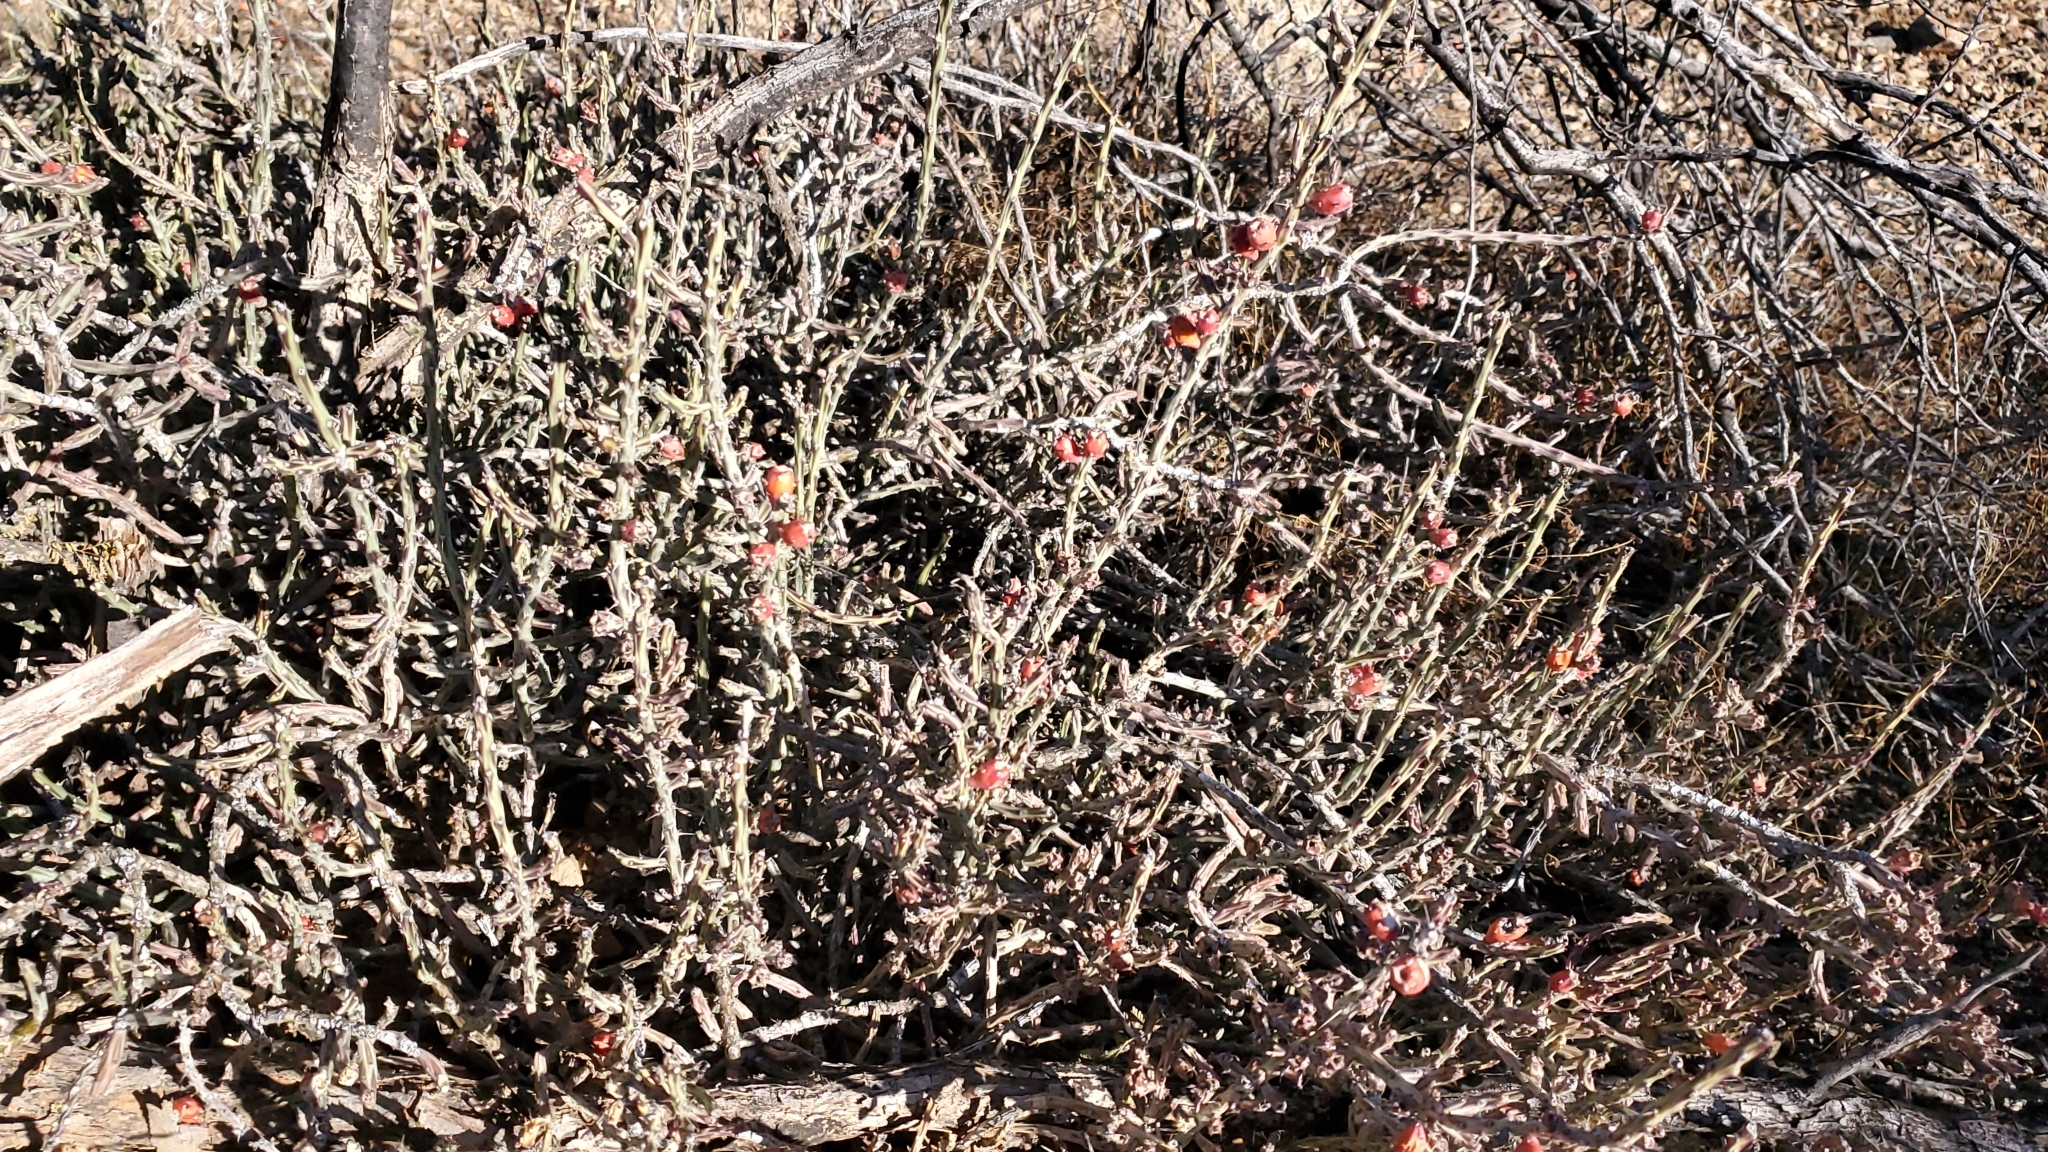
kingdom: Plantae
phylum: Tracheophyta
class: Magnoliopsida
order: Caryophyllales
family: Cactaceae
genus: Cylindropuntia
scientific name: Cylindropuntia leptocaulis
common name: Christmas cactus
